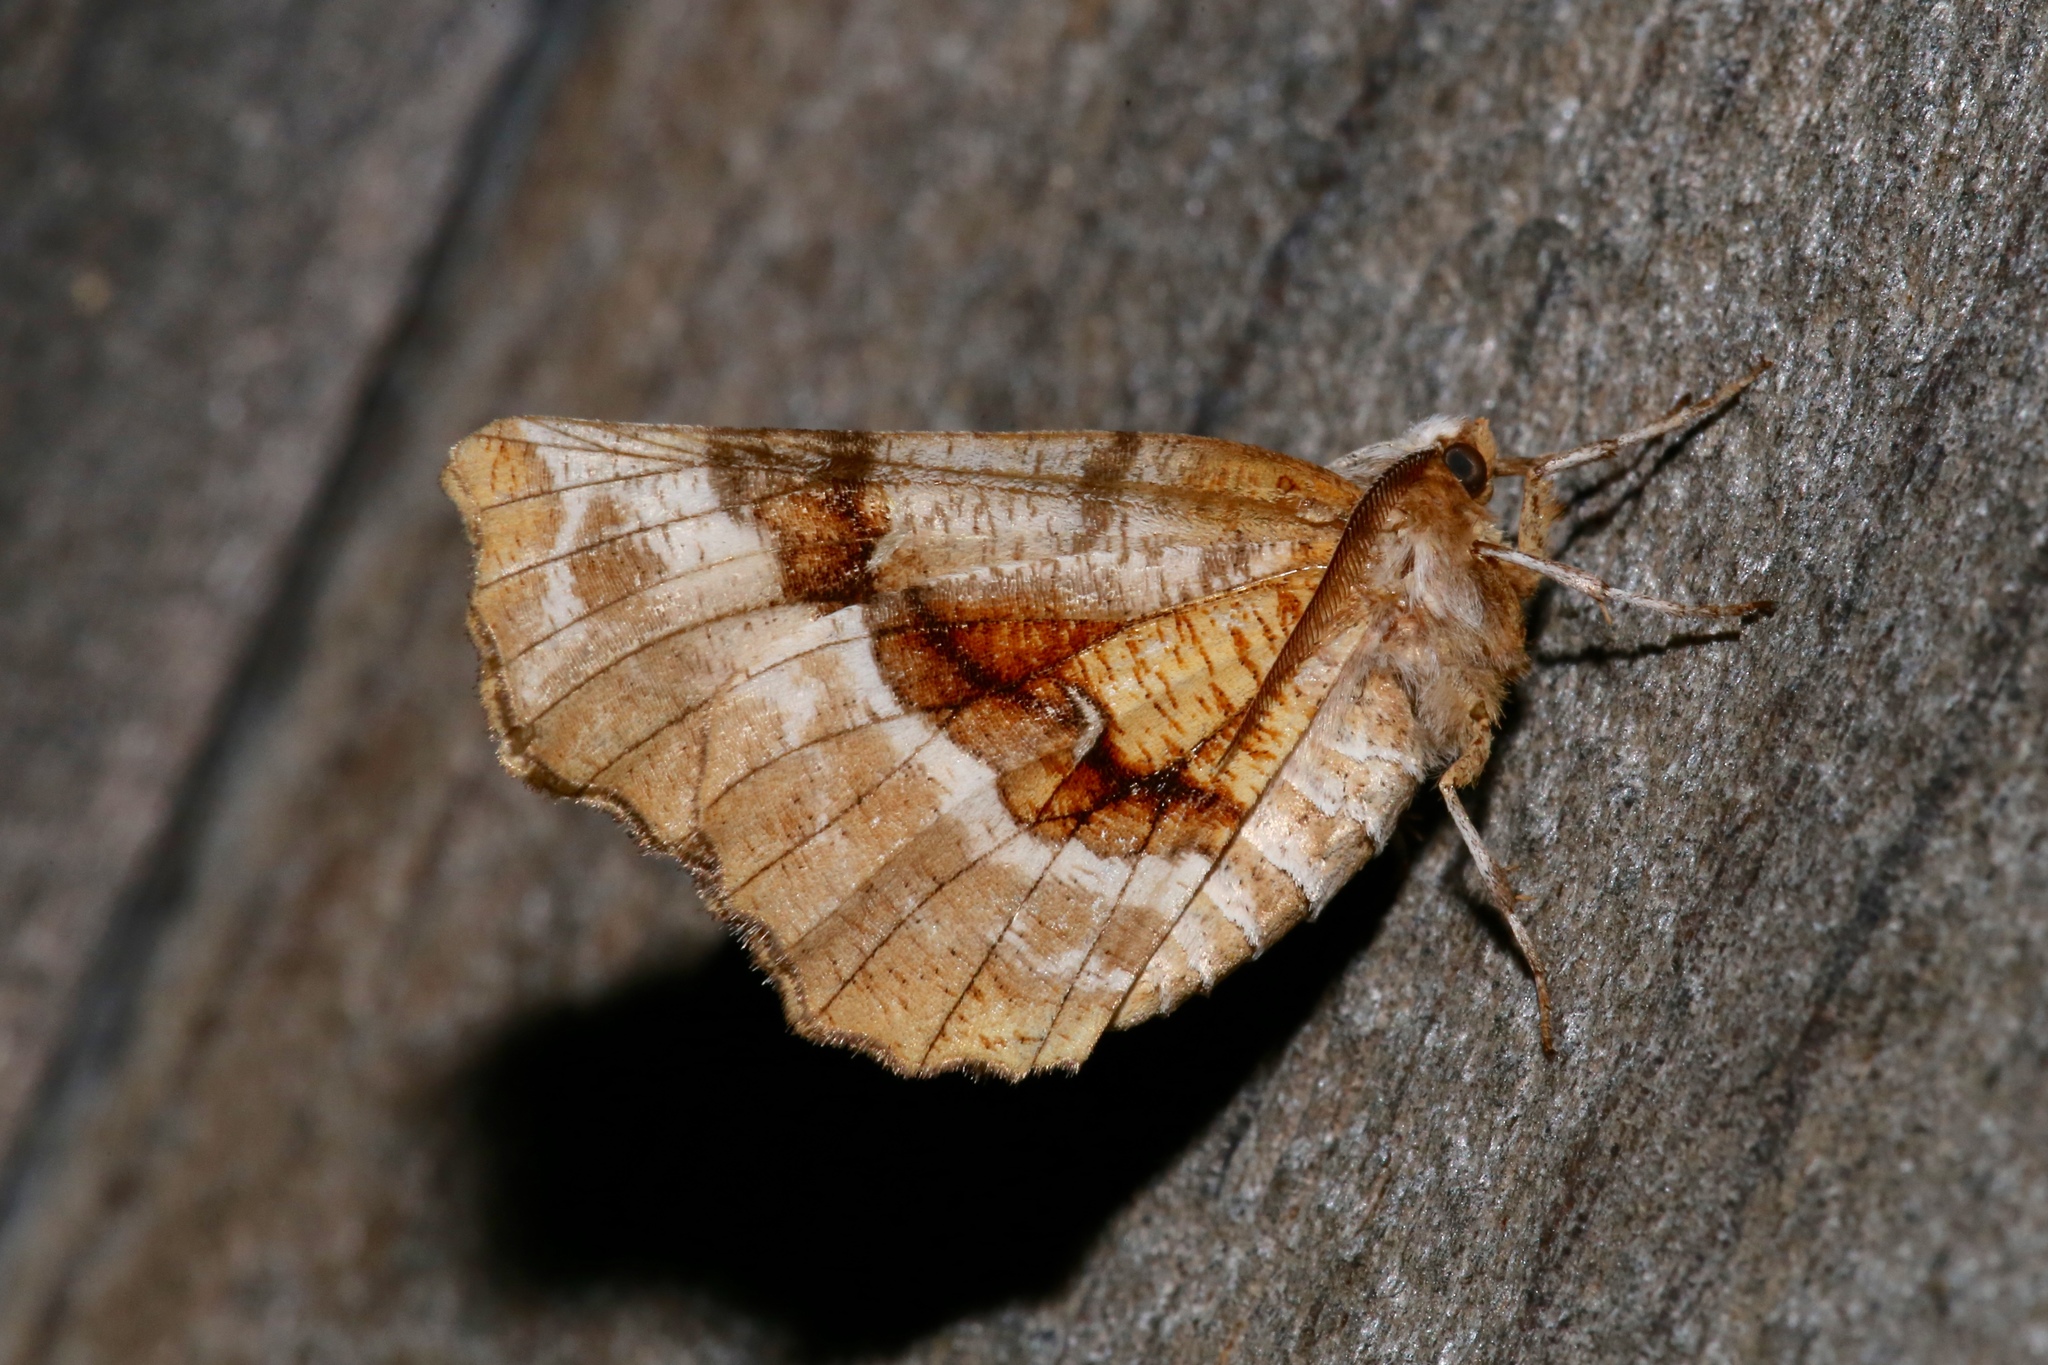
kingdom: Animalia
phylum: Arthropoda
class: Insecta
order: Lepidoptera
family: Geometridae
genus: Selenia
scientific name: Selenia kentaria
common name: Kent's geometer
